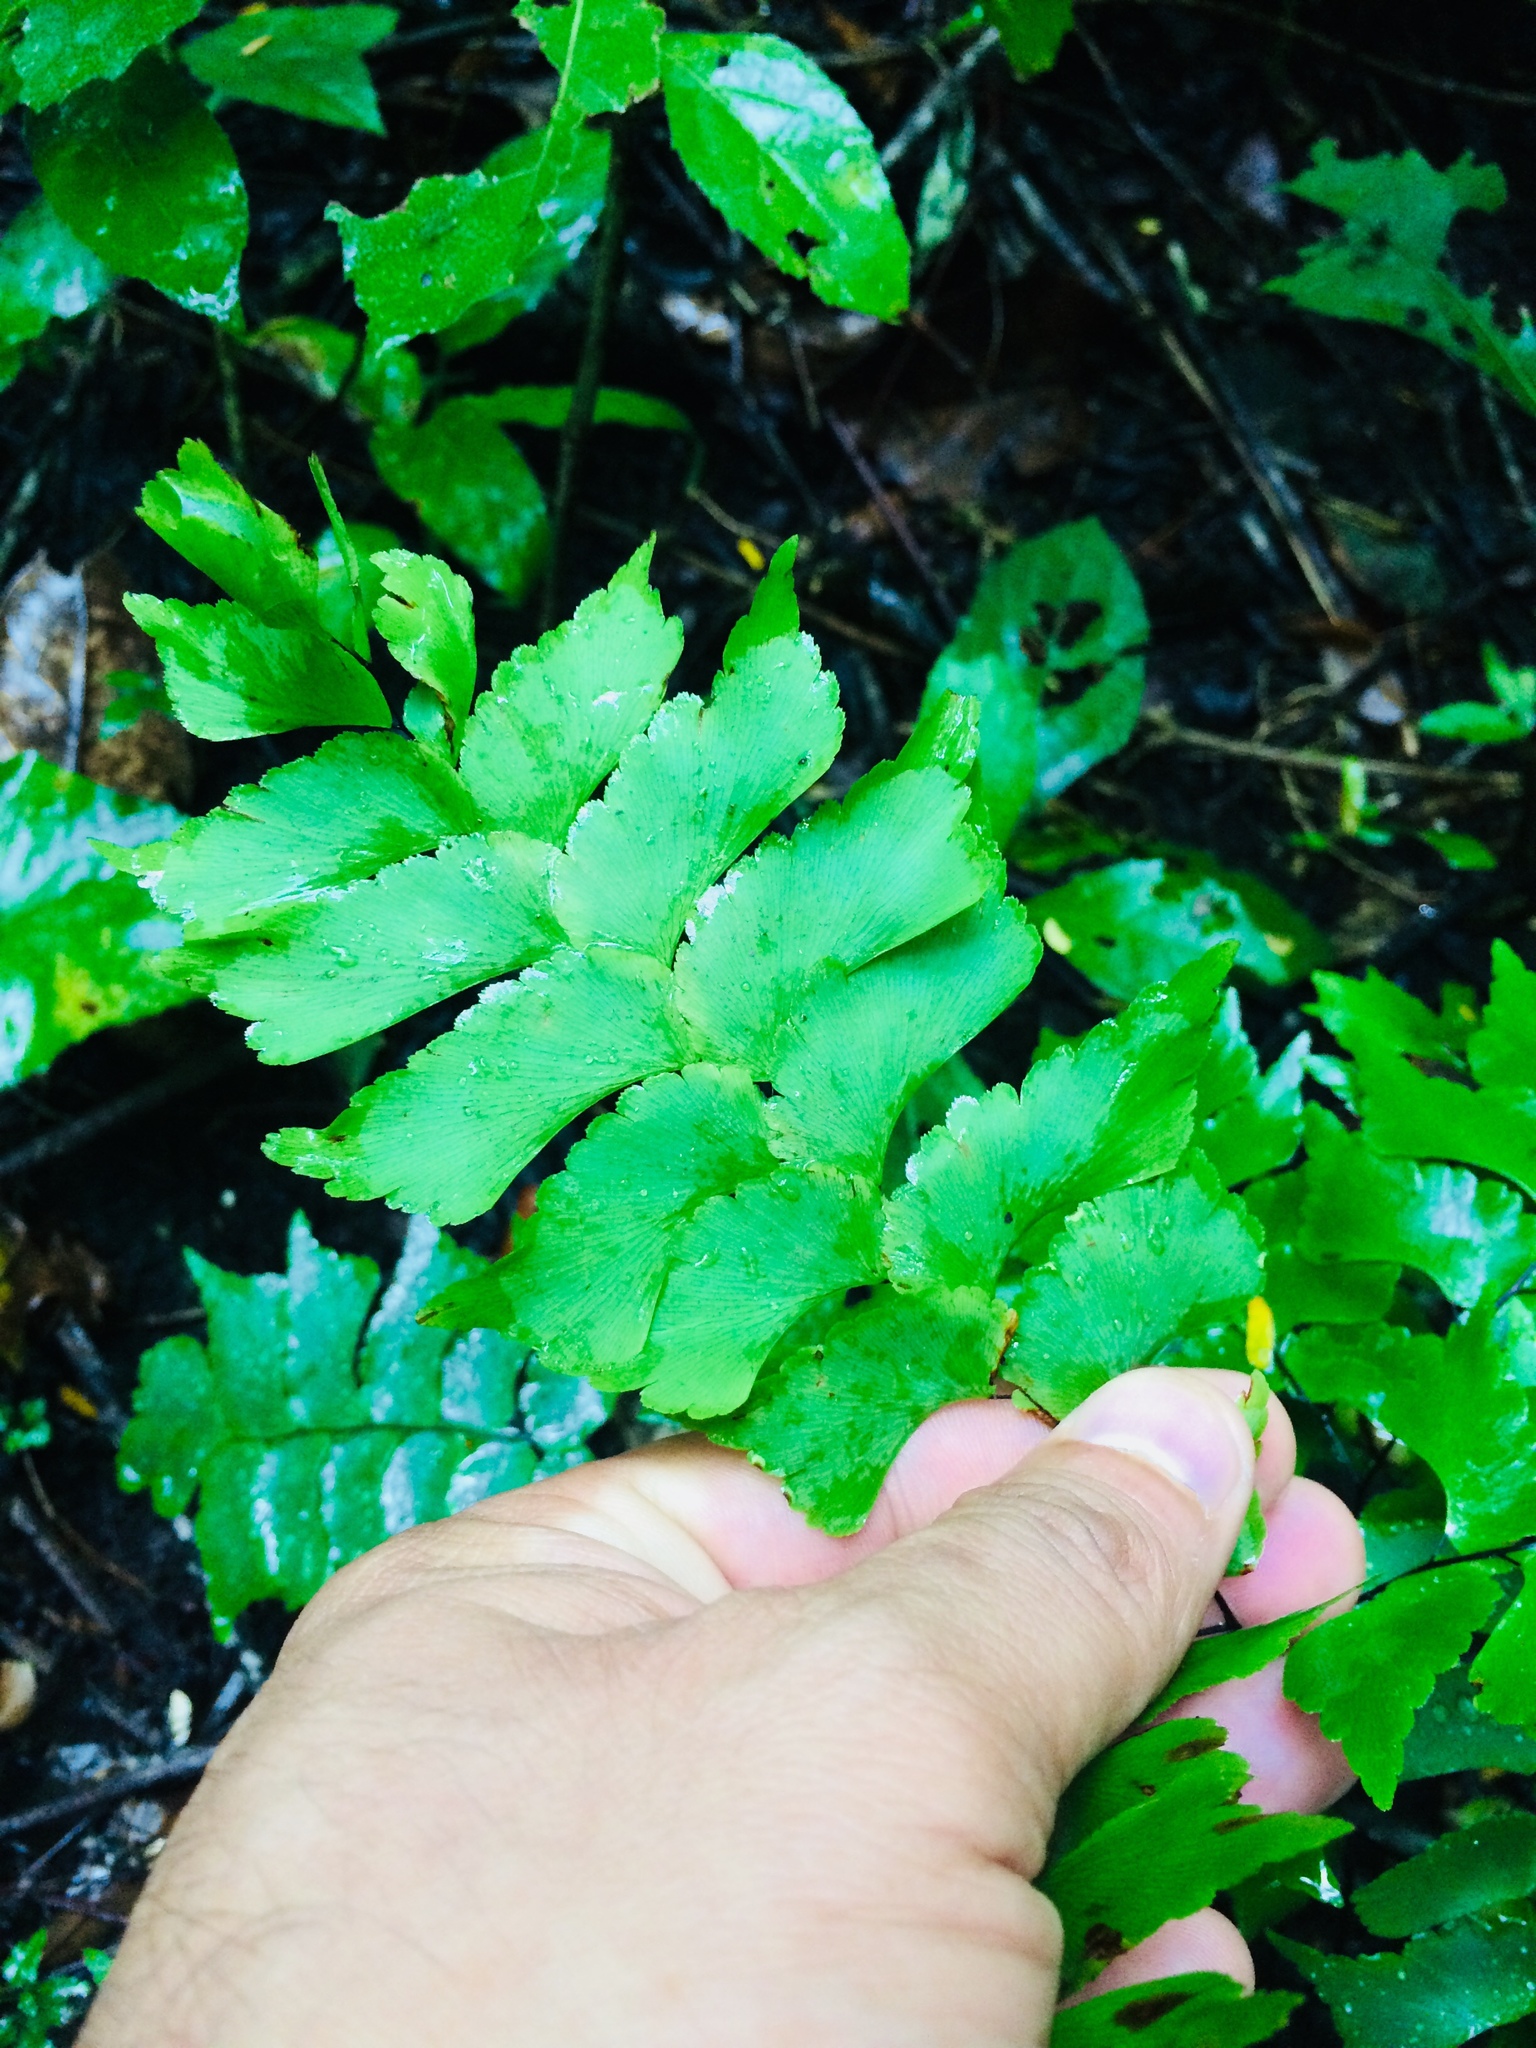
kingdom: Plantae
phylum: Tracheophyta
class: Polypodiopsida
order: Polypodiales
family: Pteridaceae
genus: Adiantum
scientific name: Adiantum trapeziforme
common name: Diamond maidenhair
